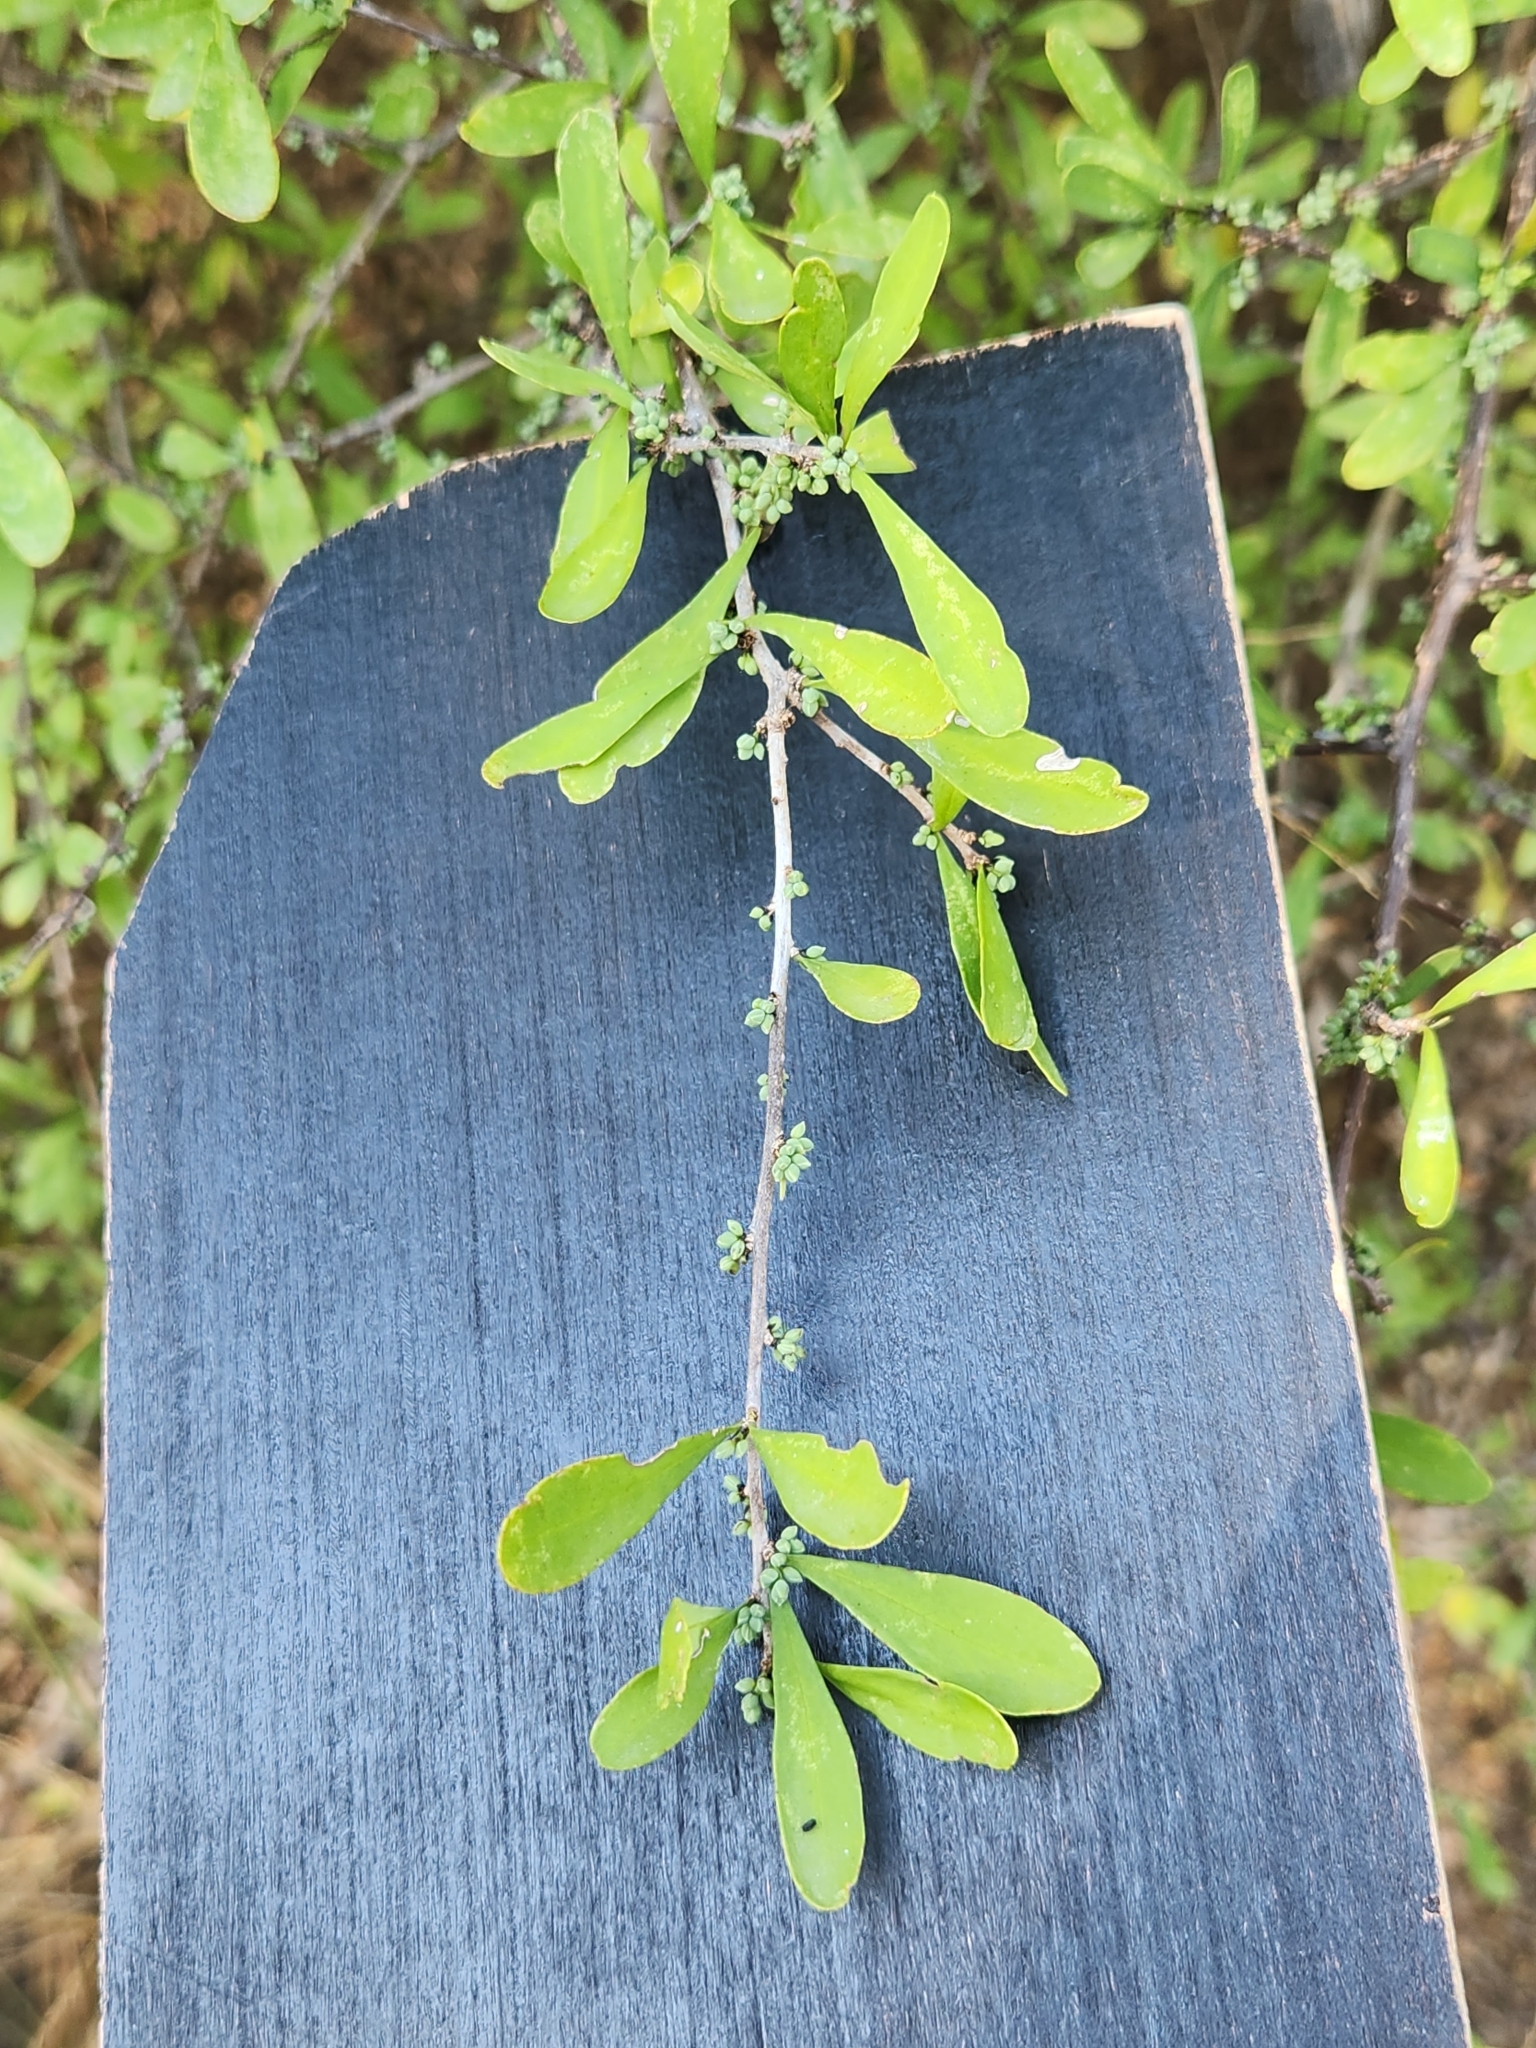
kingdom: Plantae
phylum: Tracheophyta
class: Magnoliopsida
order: Caryophyllales
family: Achatocarpaceae
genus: Phaulothamnus
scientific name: Phaulothamnus spinescens
